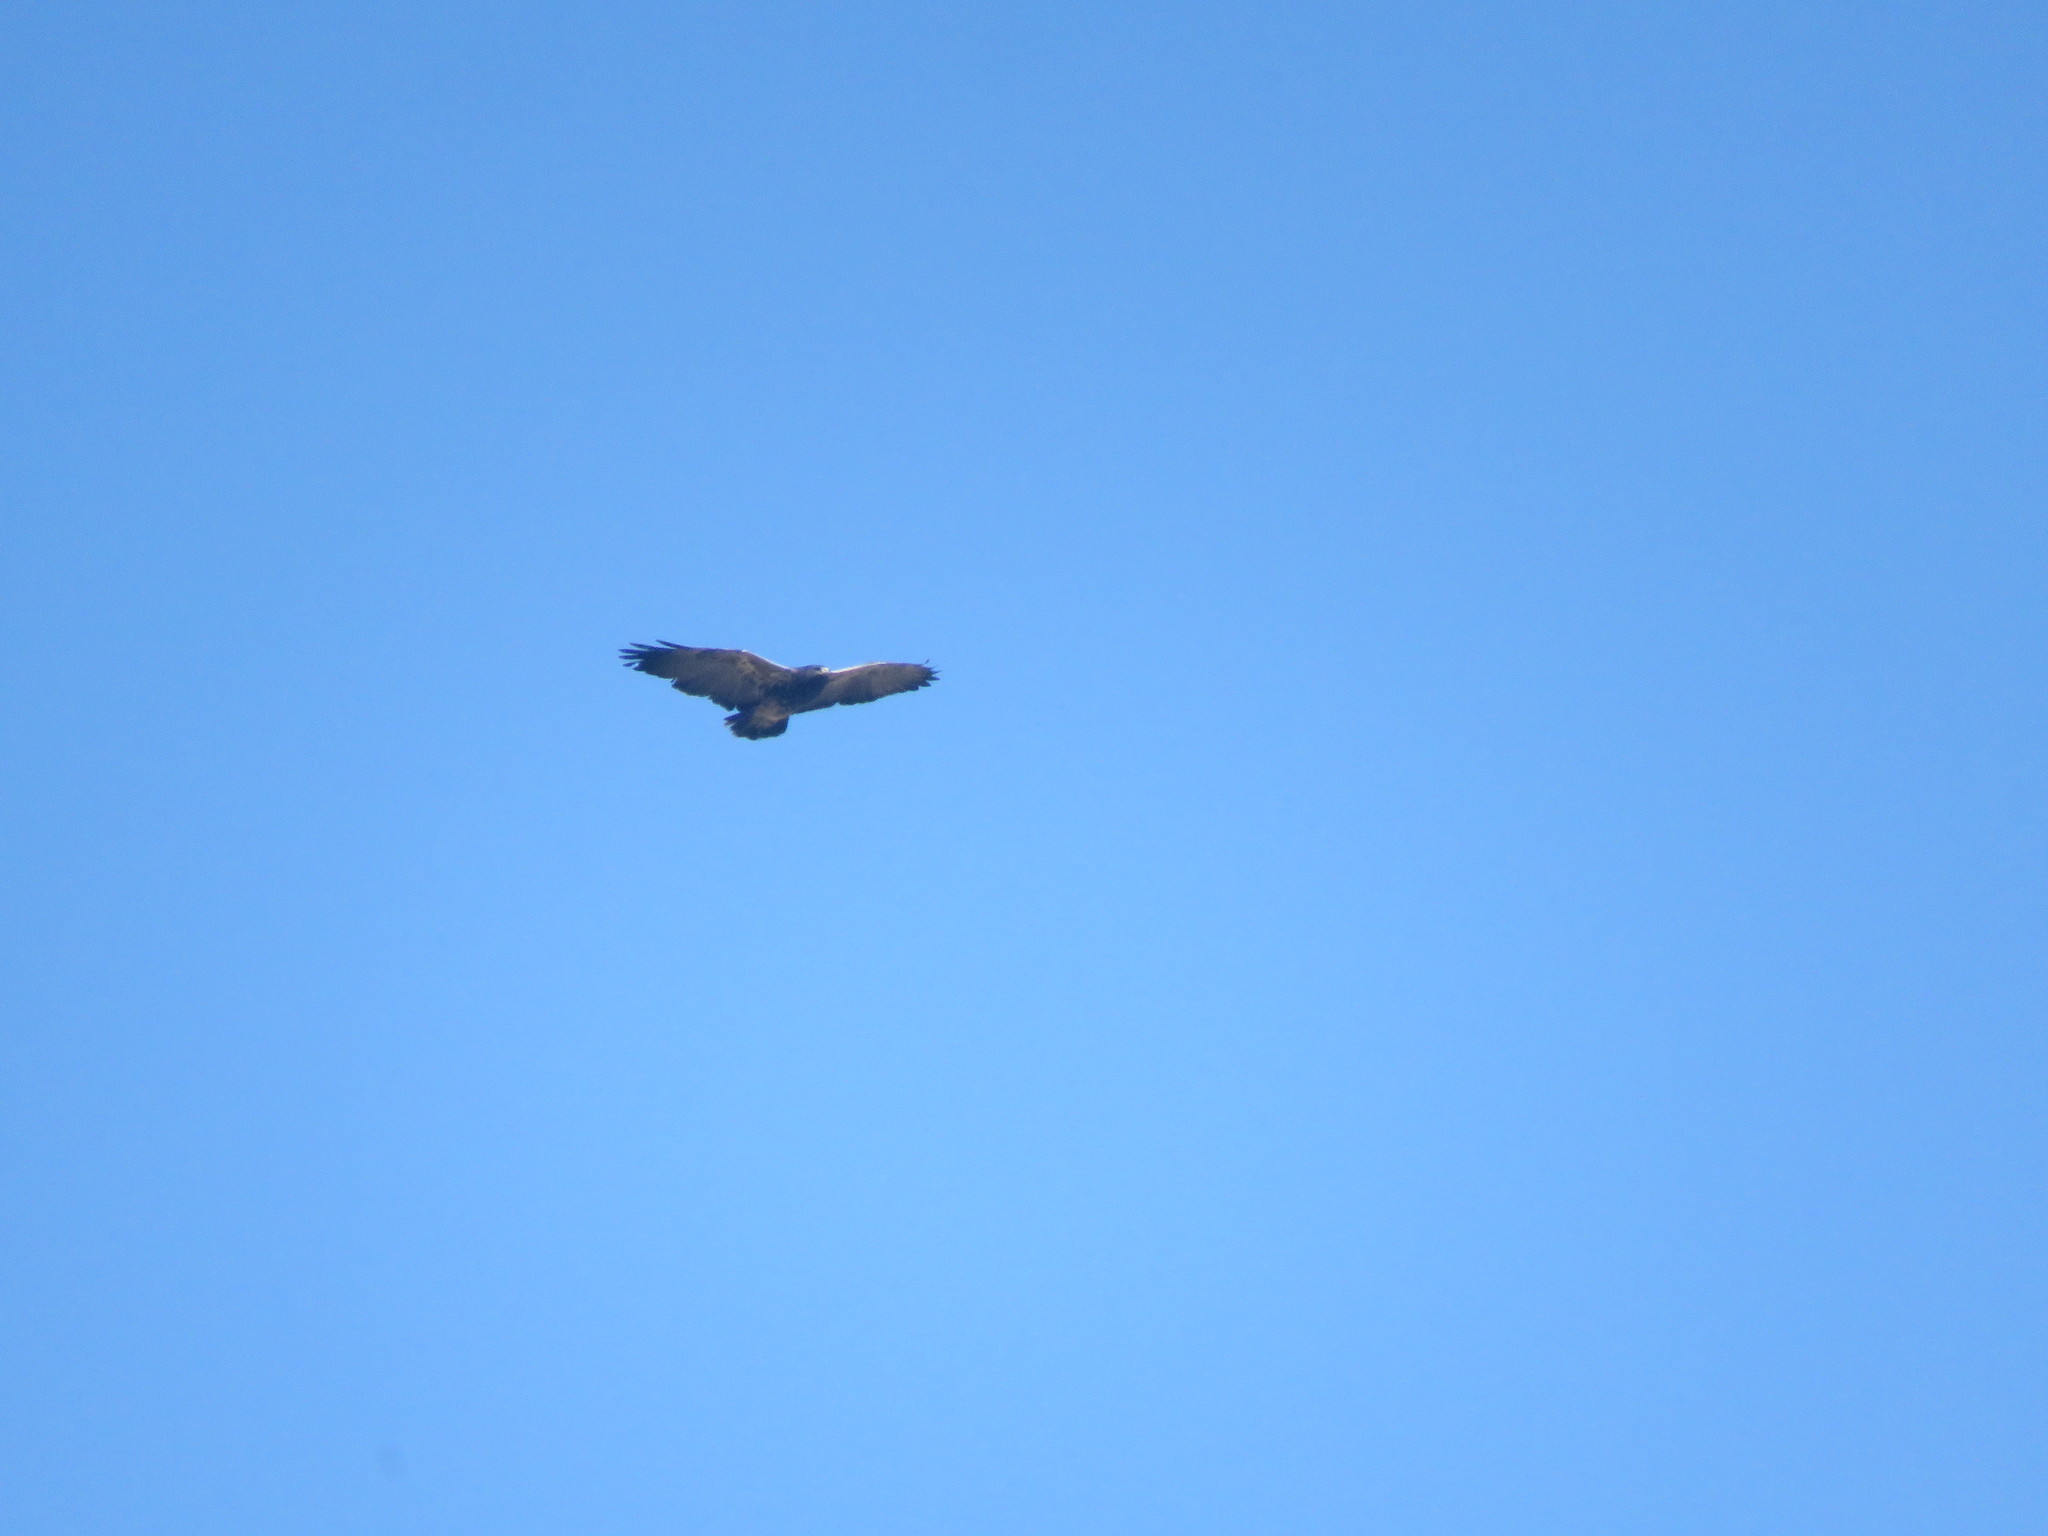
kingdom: Animalia
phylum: Chordata
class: Aves
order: Accipitriformes
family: Accipitridae
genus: Geranoaetus
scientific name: Geranoaetus melanoleucus
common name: Black-chested buzzard-eagle
